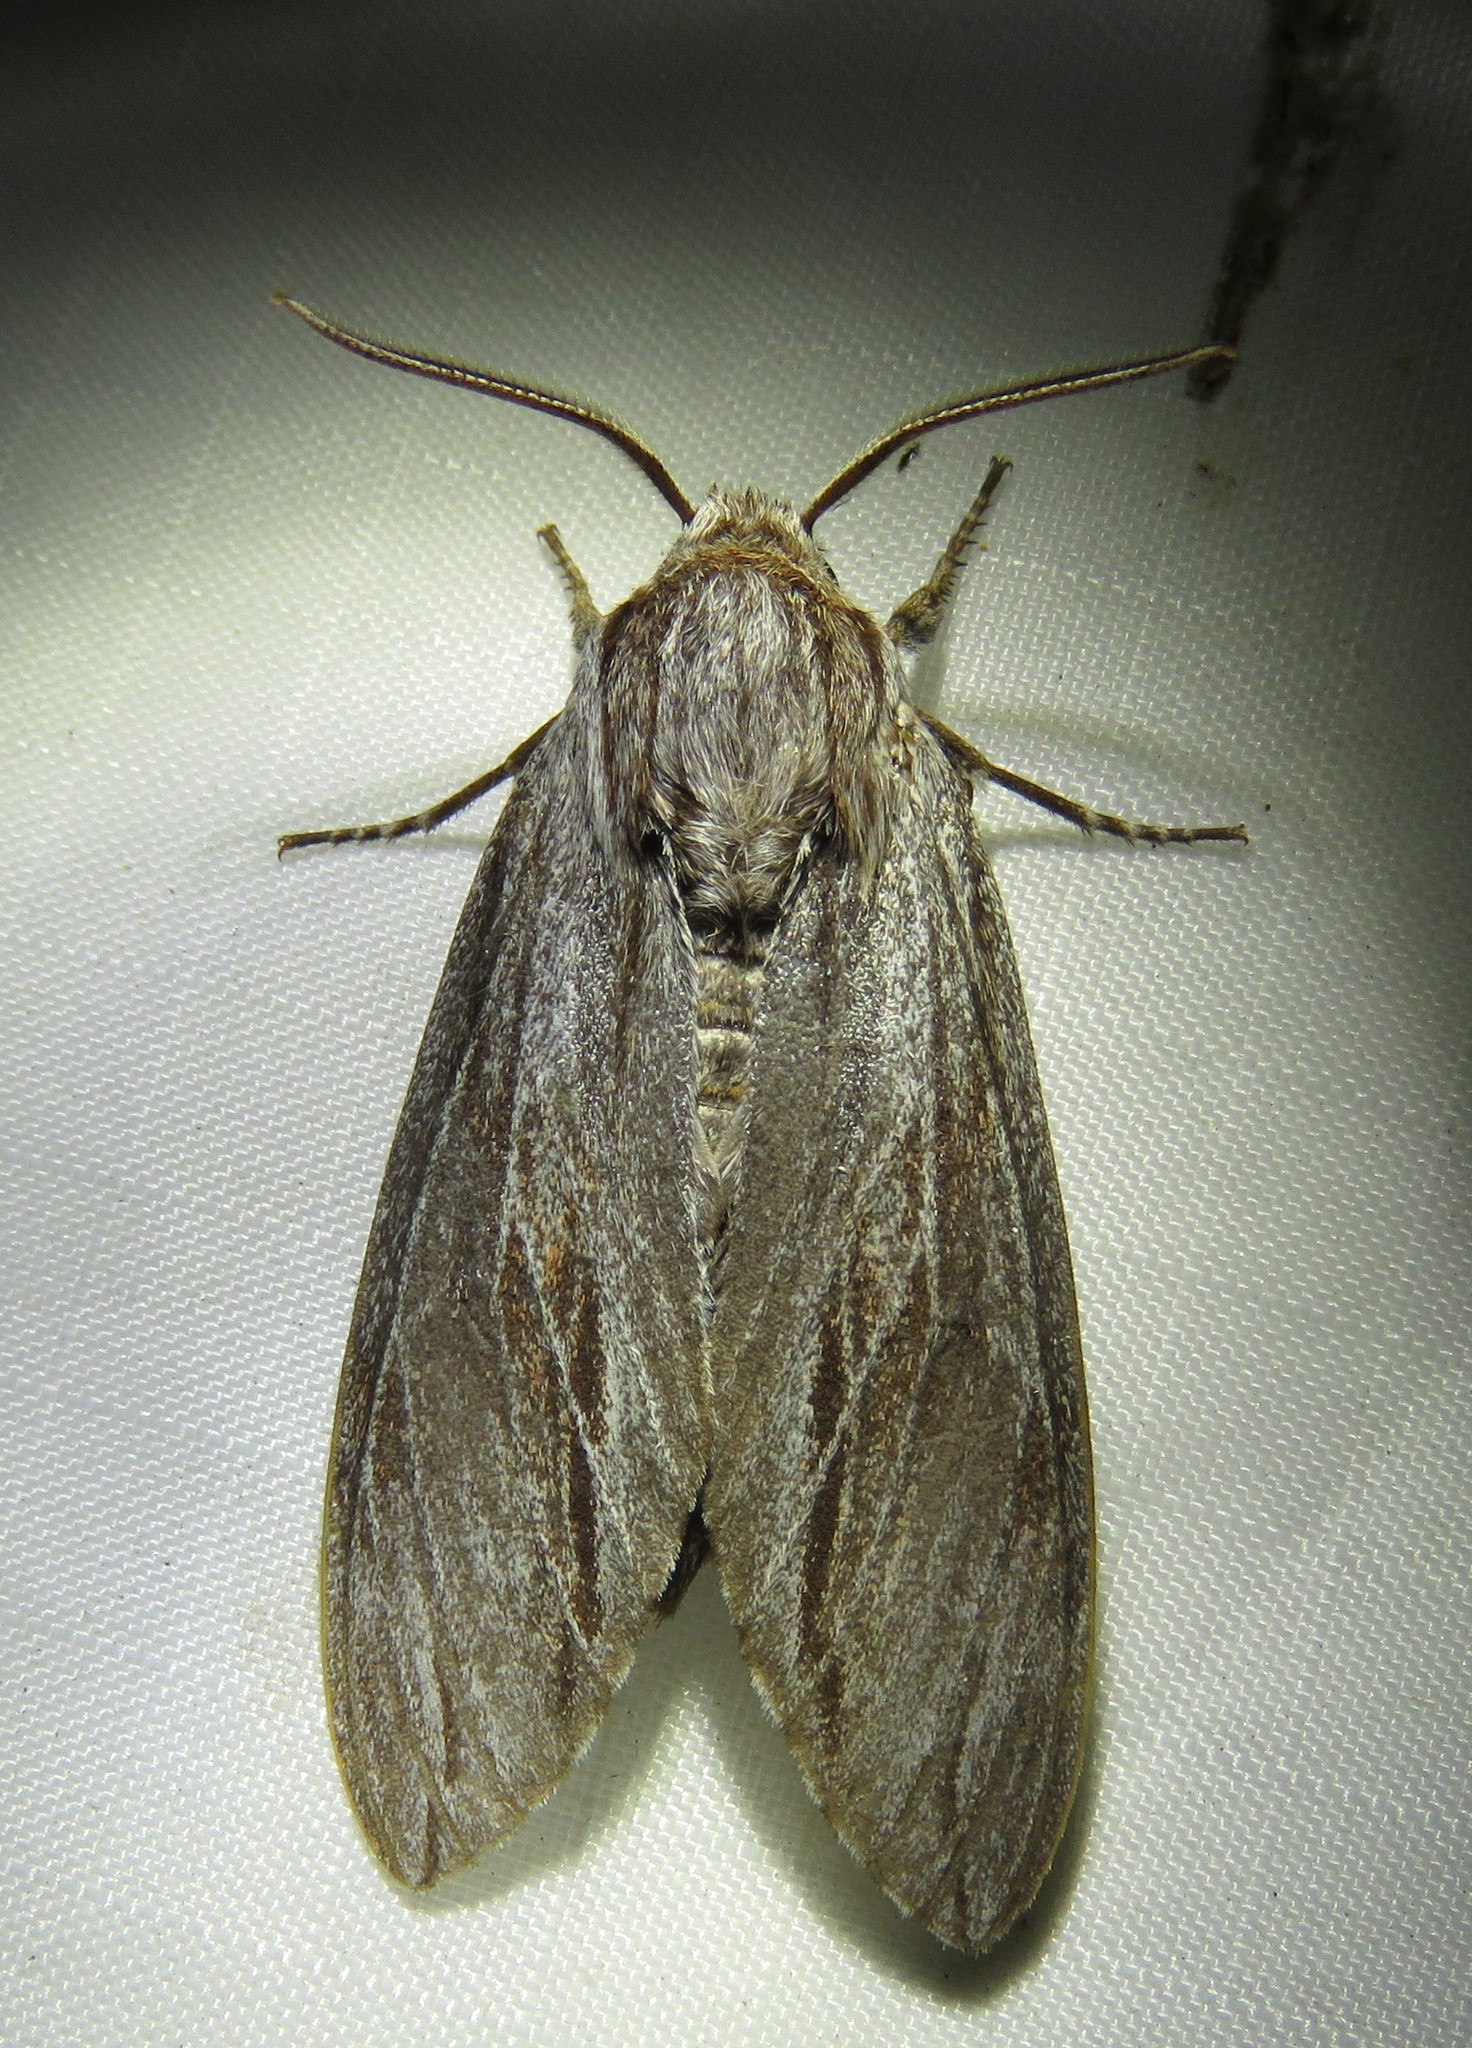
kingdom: Animalia
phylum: Arthropoda
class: Insecta
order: Lepidoptera
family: Sphingidae
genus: Isoparce
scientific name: Isoparce cupressi
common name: Cypress sphinx
